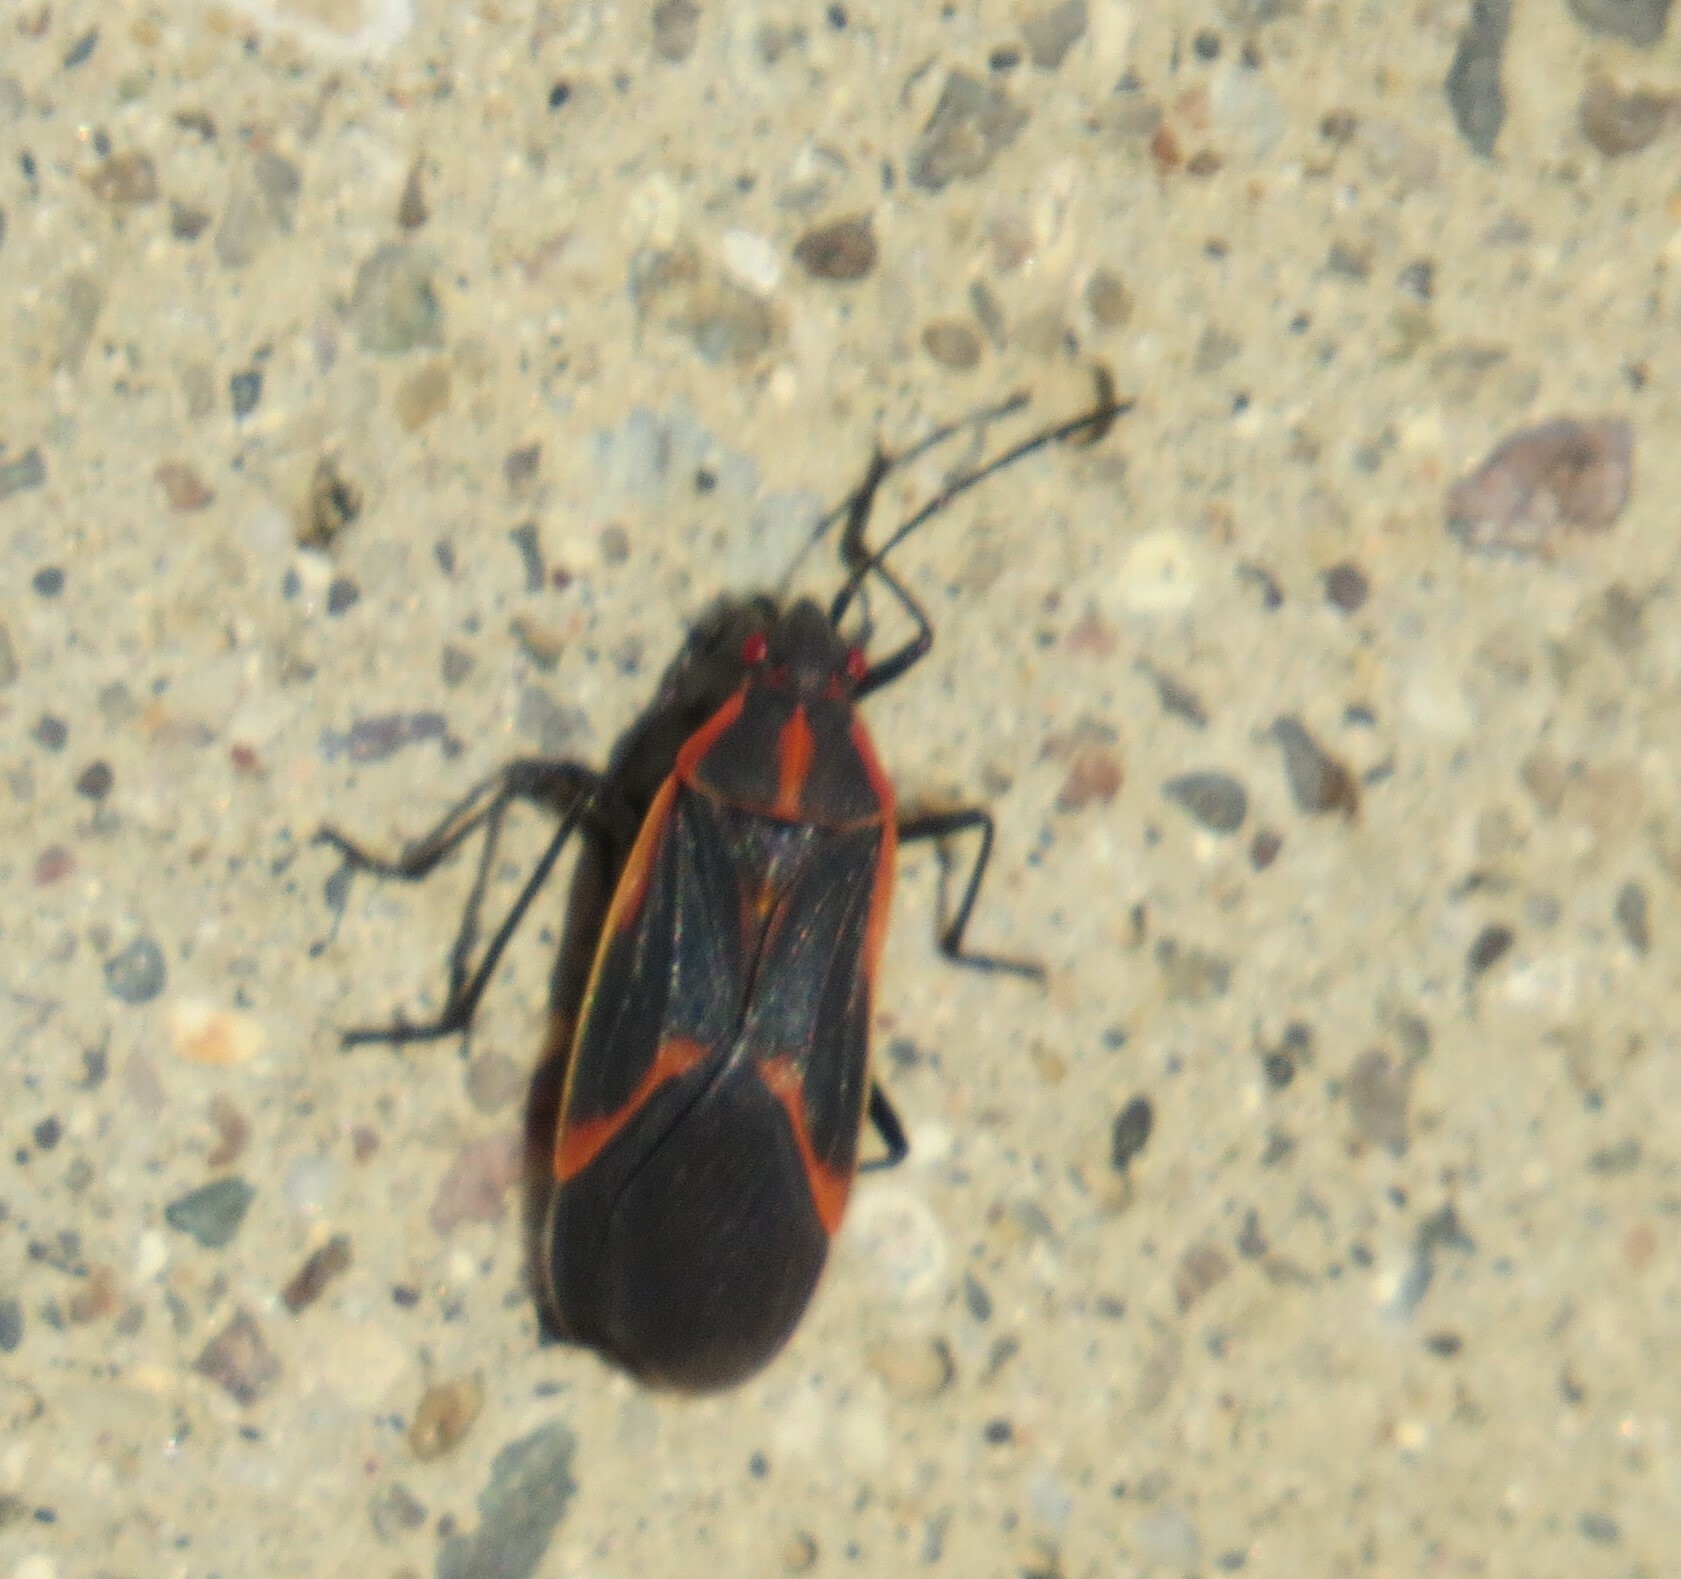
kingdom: Animalia
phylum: Arthropoda
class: Insecta
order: Hemiptera
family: Rhopalidae
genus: Boisea
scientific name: Boisea trivittata
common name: Boxelder bug
